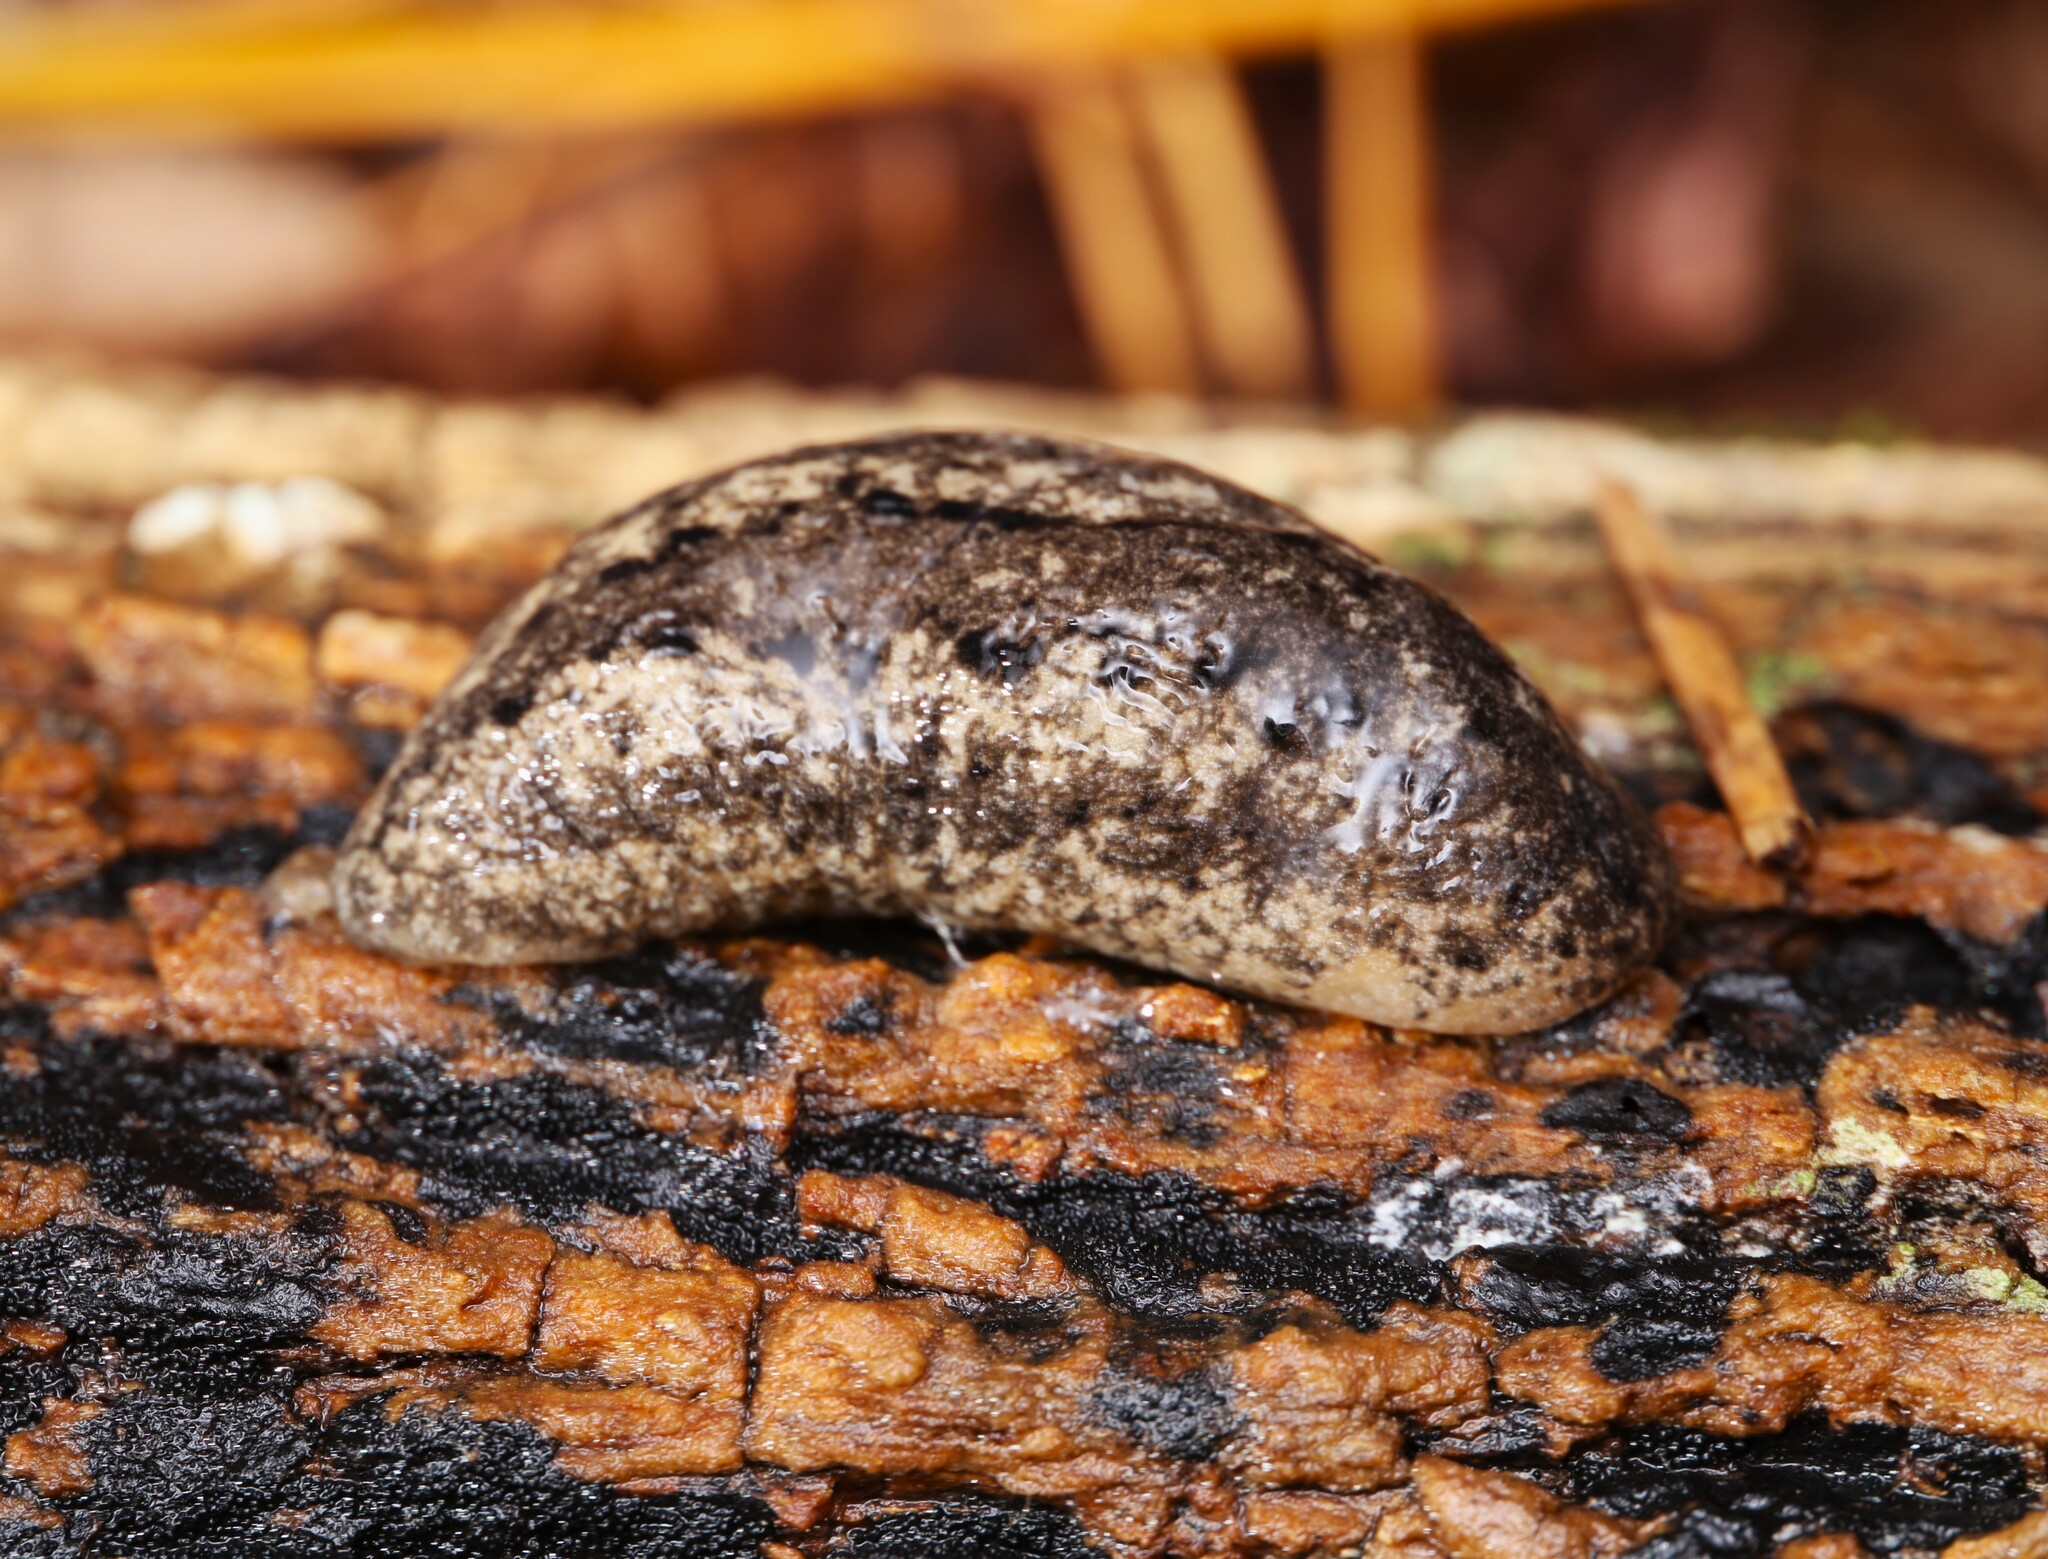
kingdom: Animalia
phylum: Mollusca
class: Gastropoda
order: Stylommatophora
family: Philomycidae
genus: Philomycus
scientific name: Philomycus carolinianus
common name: Carolina mantleslug
